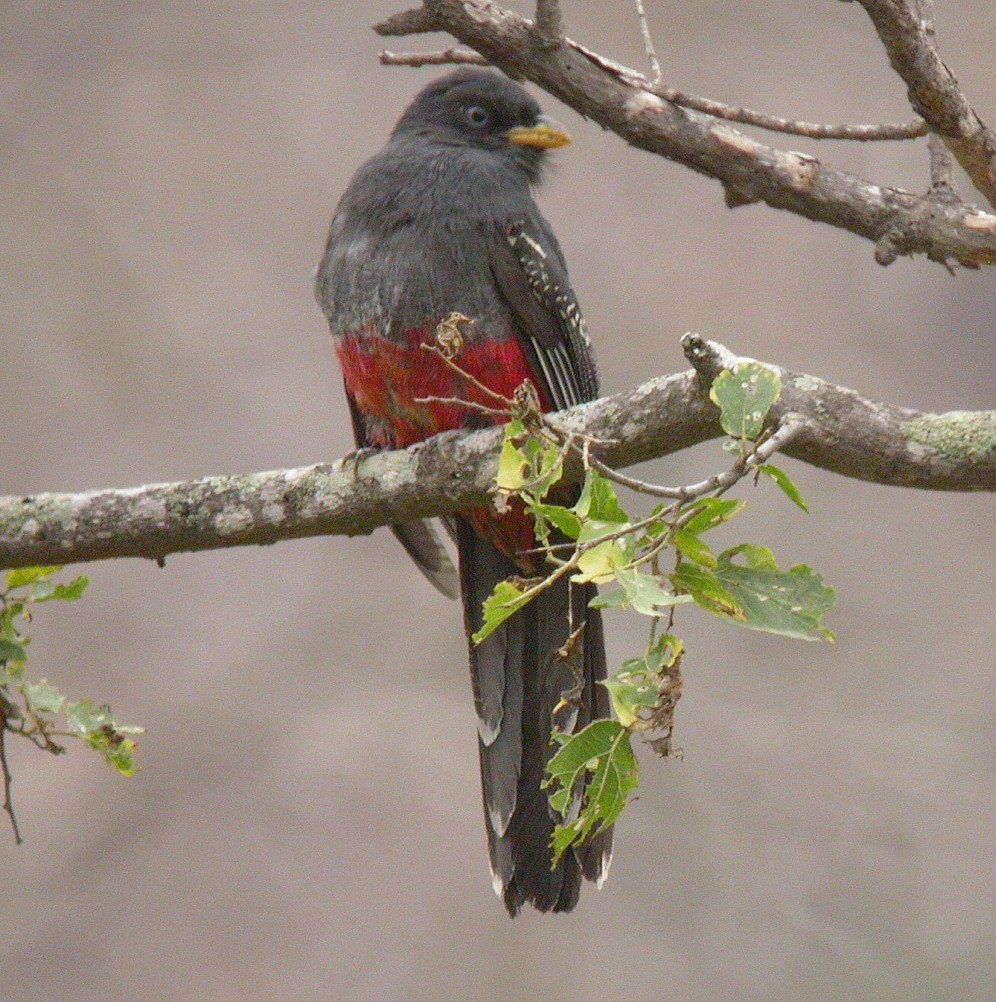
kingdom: Animalia
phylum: Chordata
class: Aves
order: Trogoniformes
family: Trogonidae
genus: Trogon
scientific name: Trogon mesurus
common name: Ecuadorian trogon
